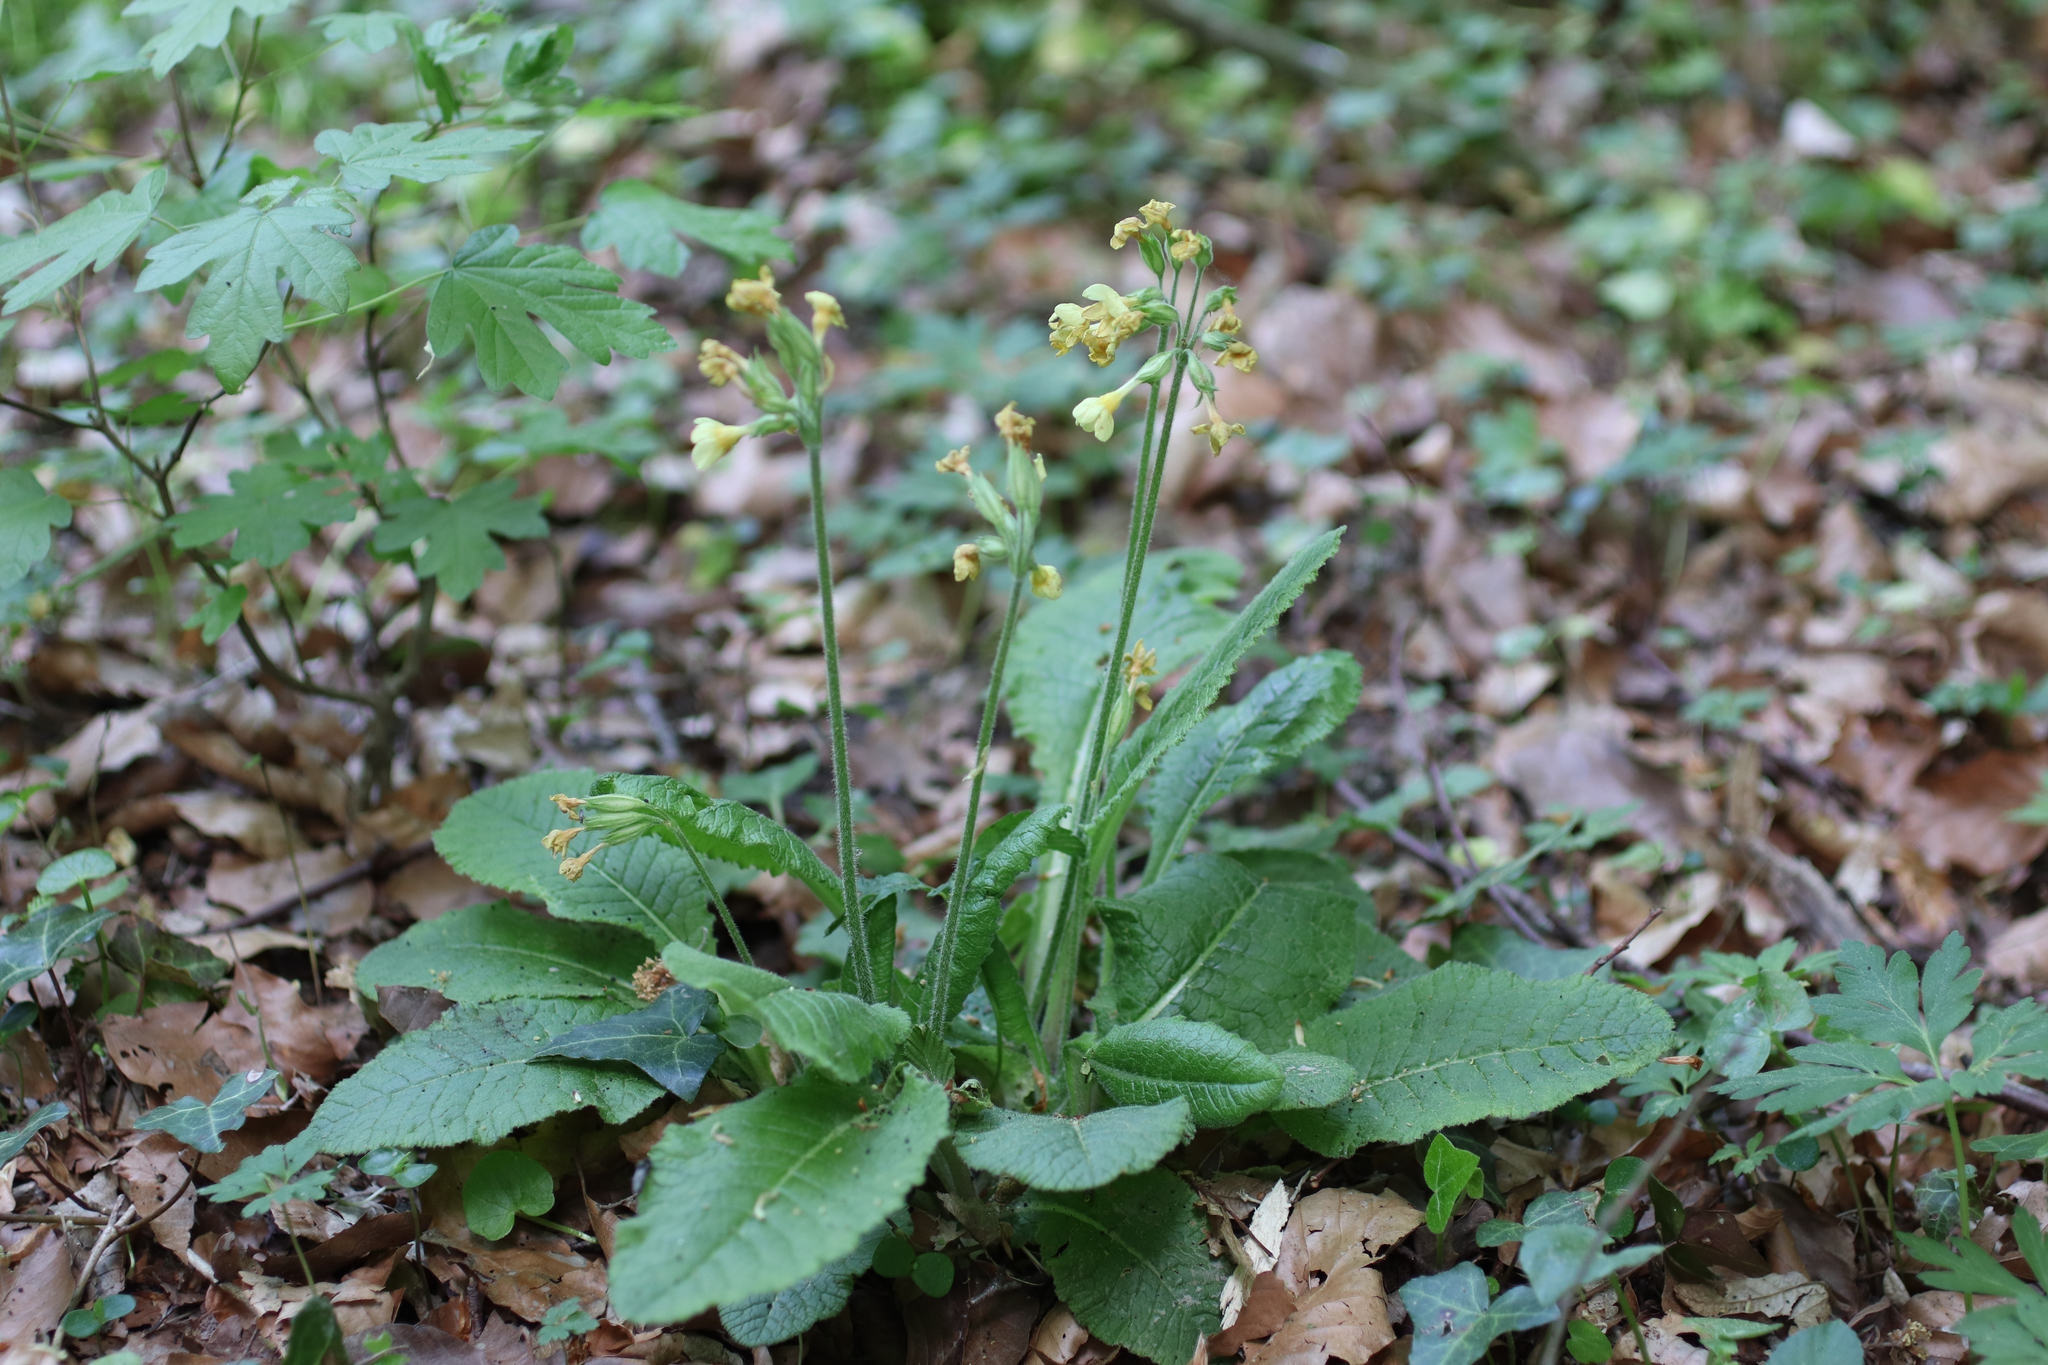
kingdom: Plantae
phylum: Tracheophyta
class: Magnoliopsida
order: Ericales
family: Primulaceae
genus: Primula
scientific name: Primula elatior
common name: Oxlip
